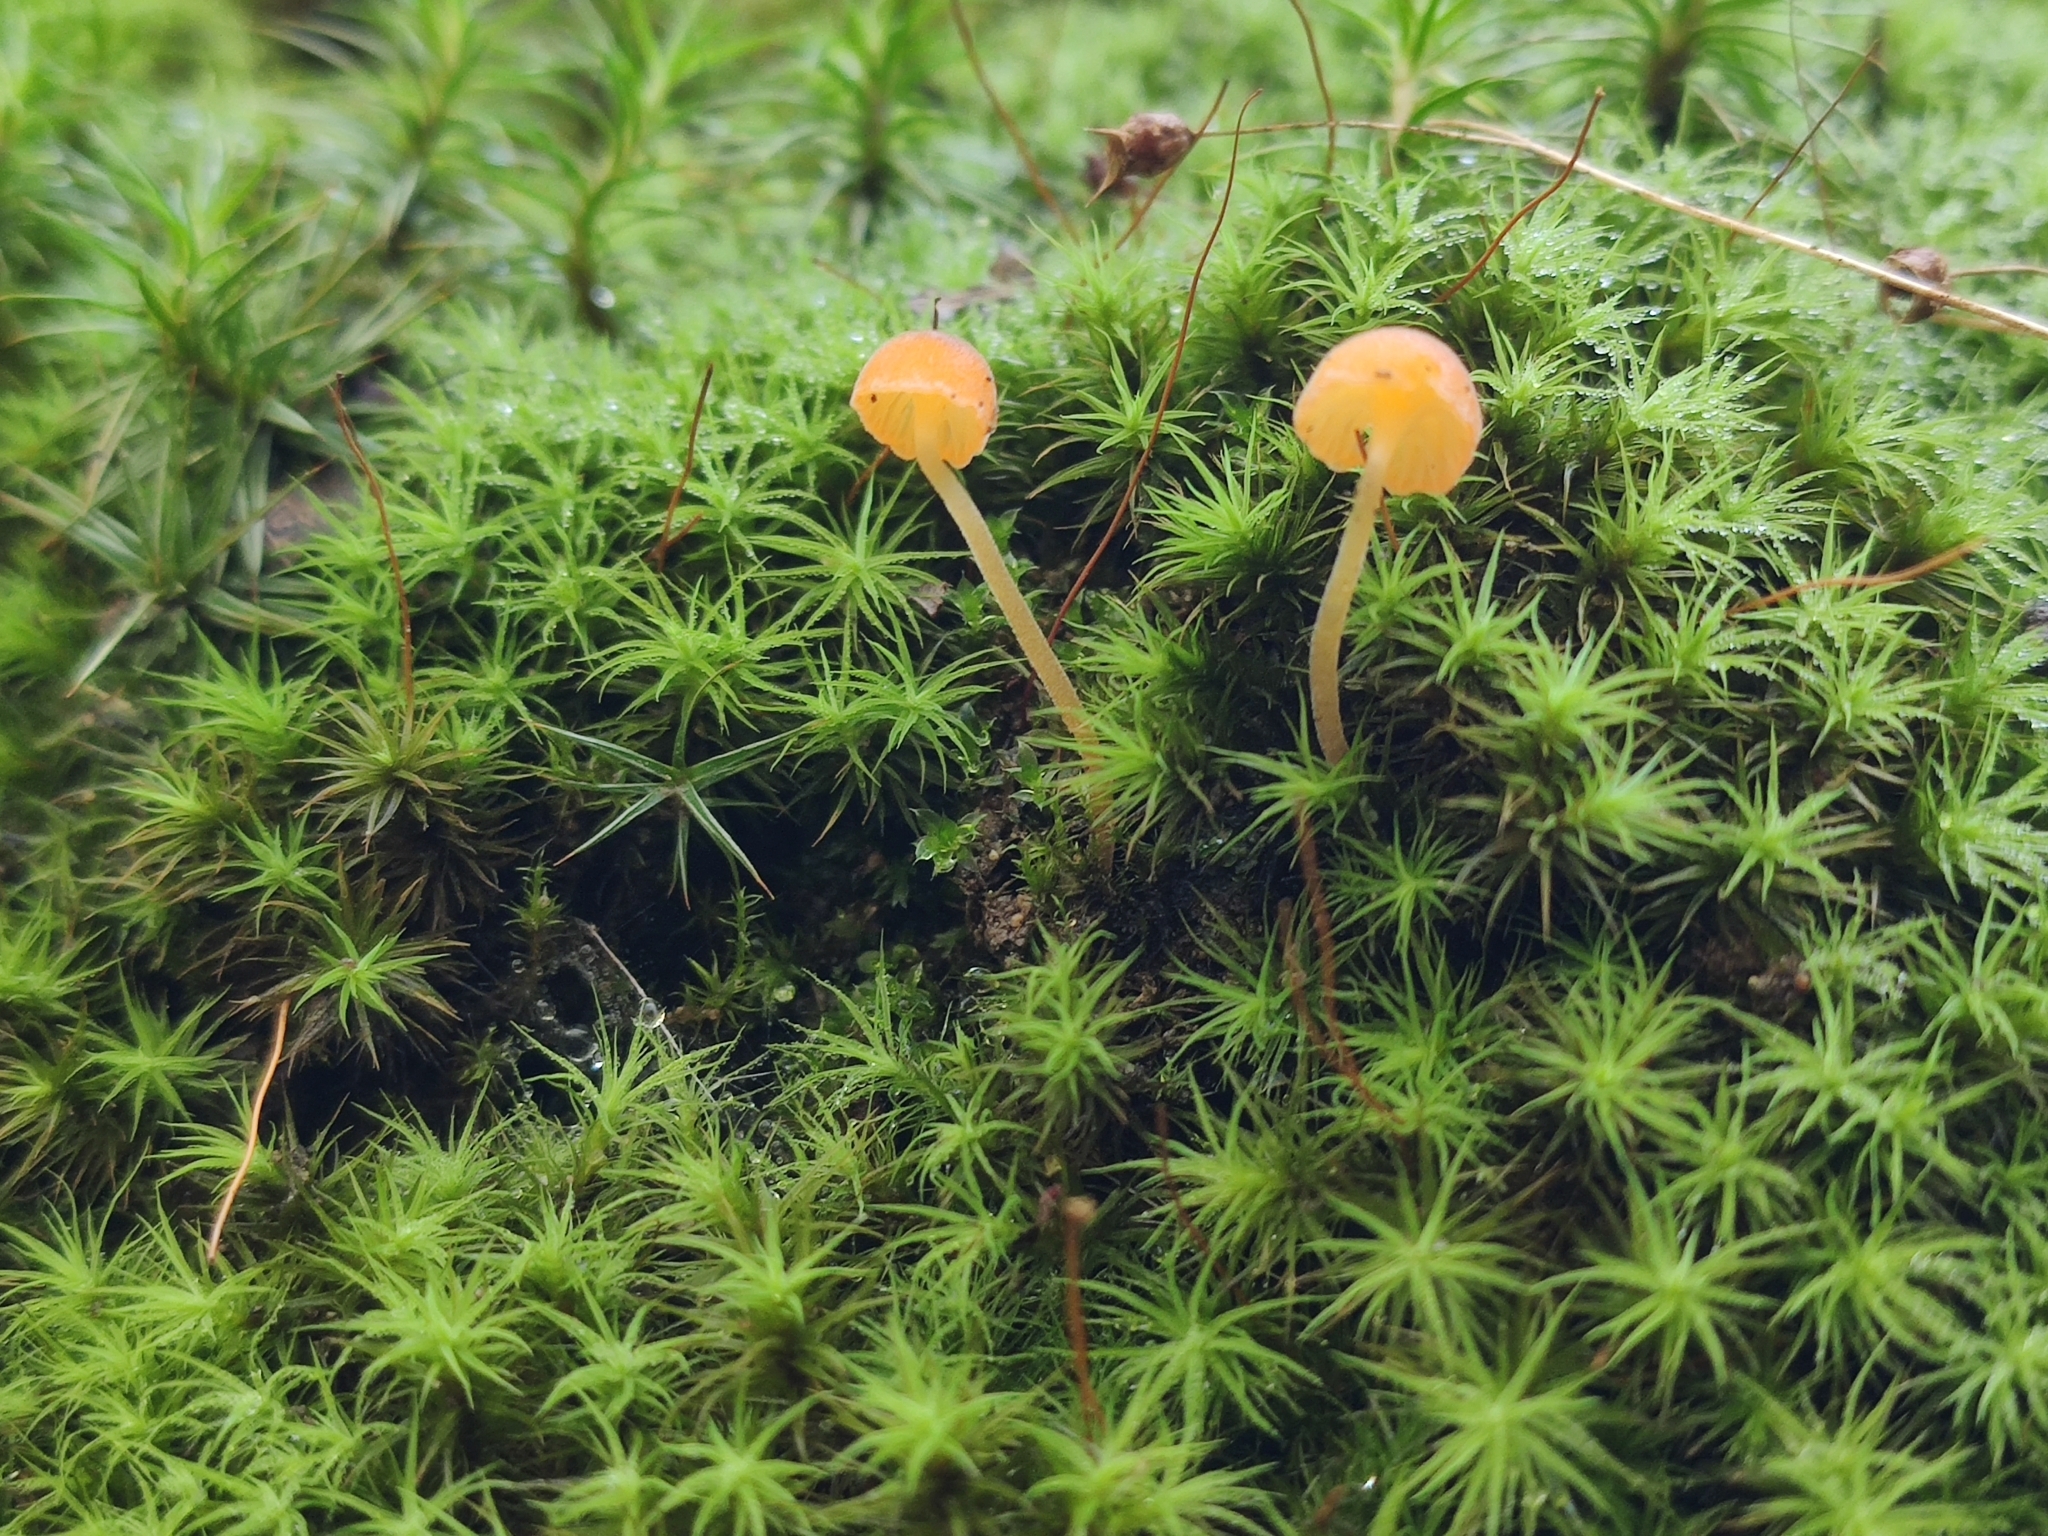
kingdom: Fungi
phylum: Basidiomycota
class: Agaricomycetes
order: Hymenochaetales
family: Rickenellaceae
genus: Rickenella
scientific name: Rickenella fibula
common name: Orange mosscap
